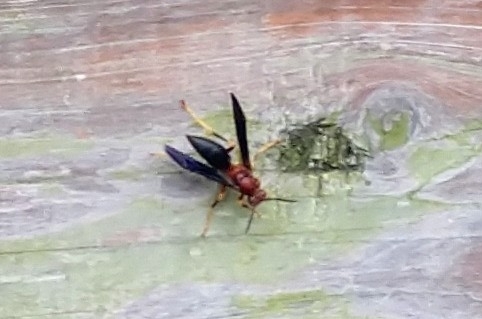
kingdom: Animalia
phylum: Arthropoda
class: Insecta
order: Hymenoptera
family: Eumenidae
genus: Polistes
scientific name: Polistes metricus
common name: Metric paper wasp
